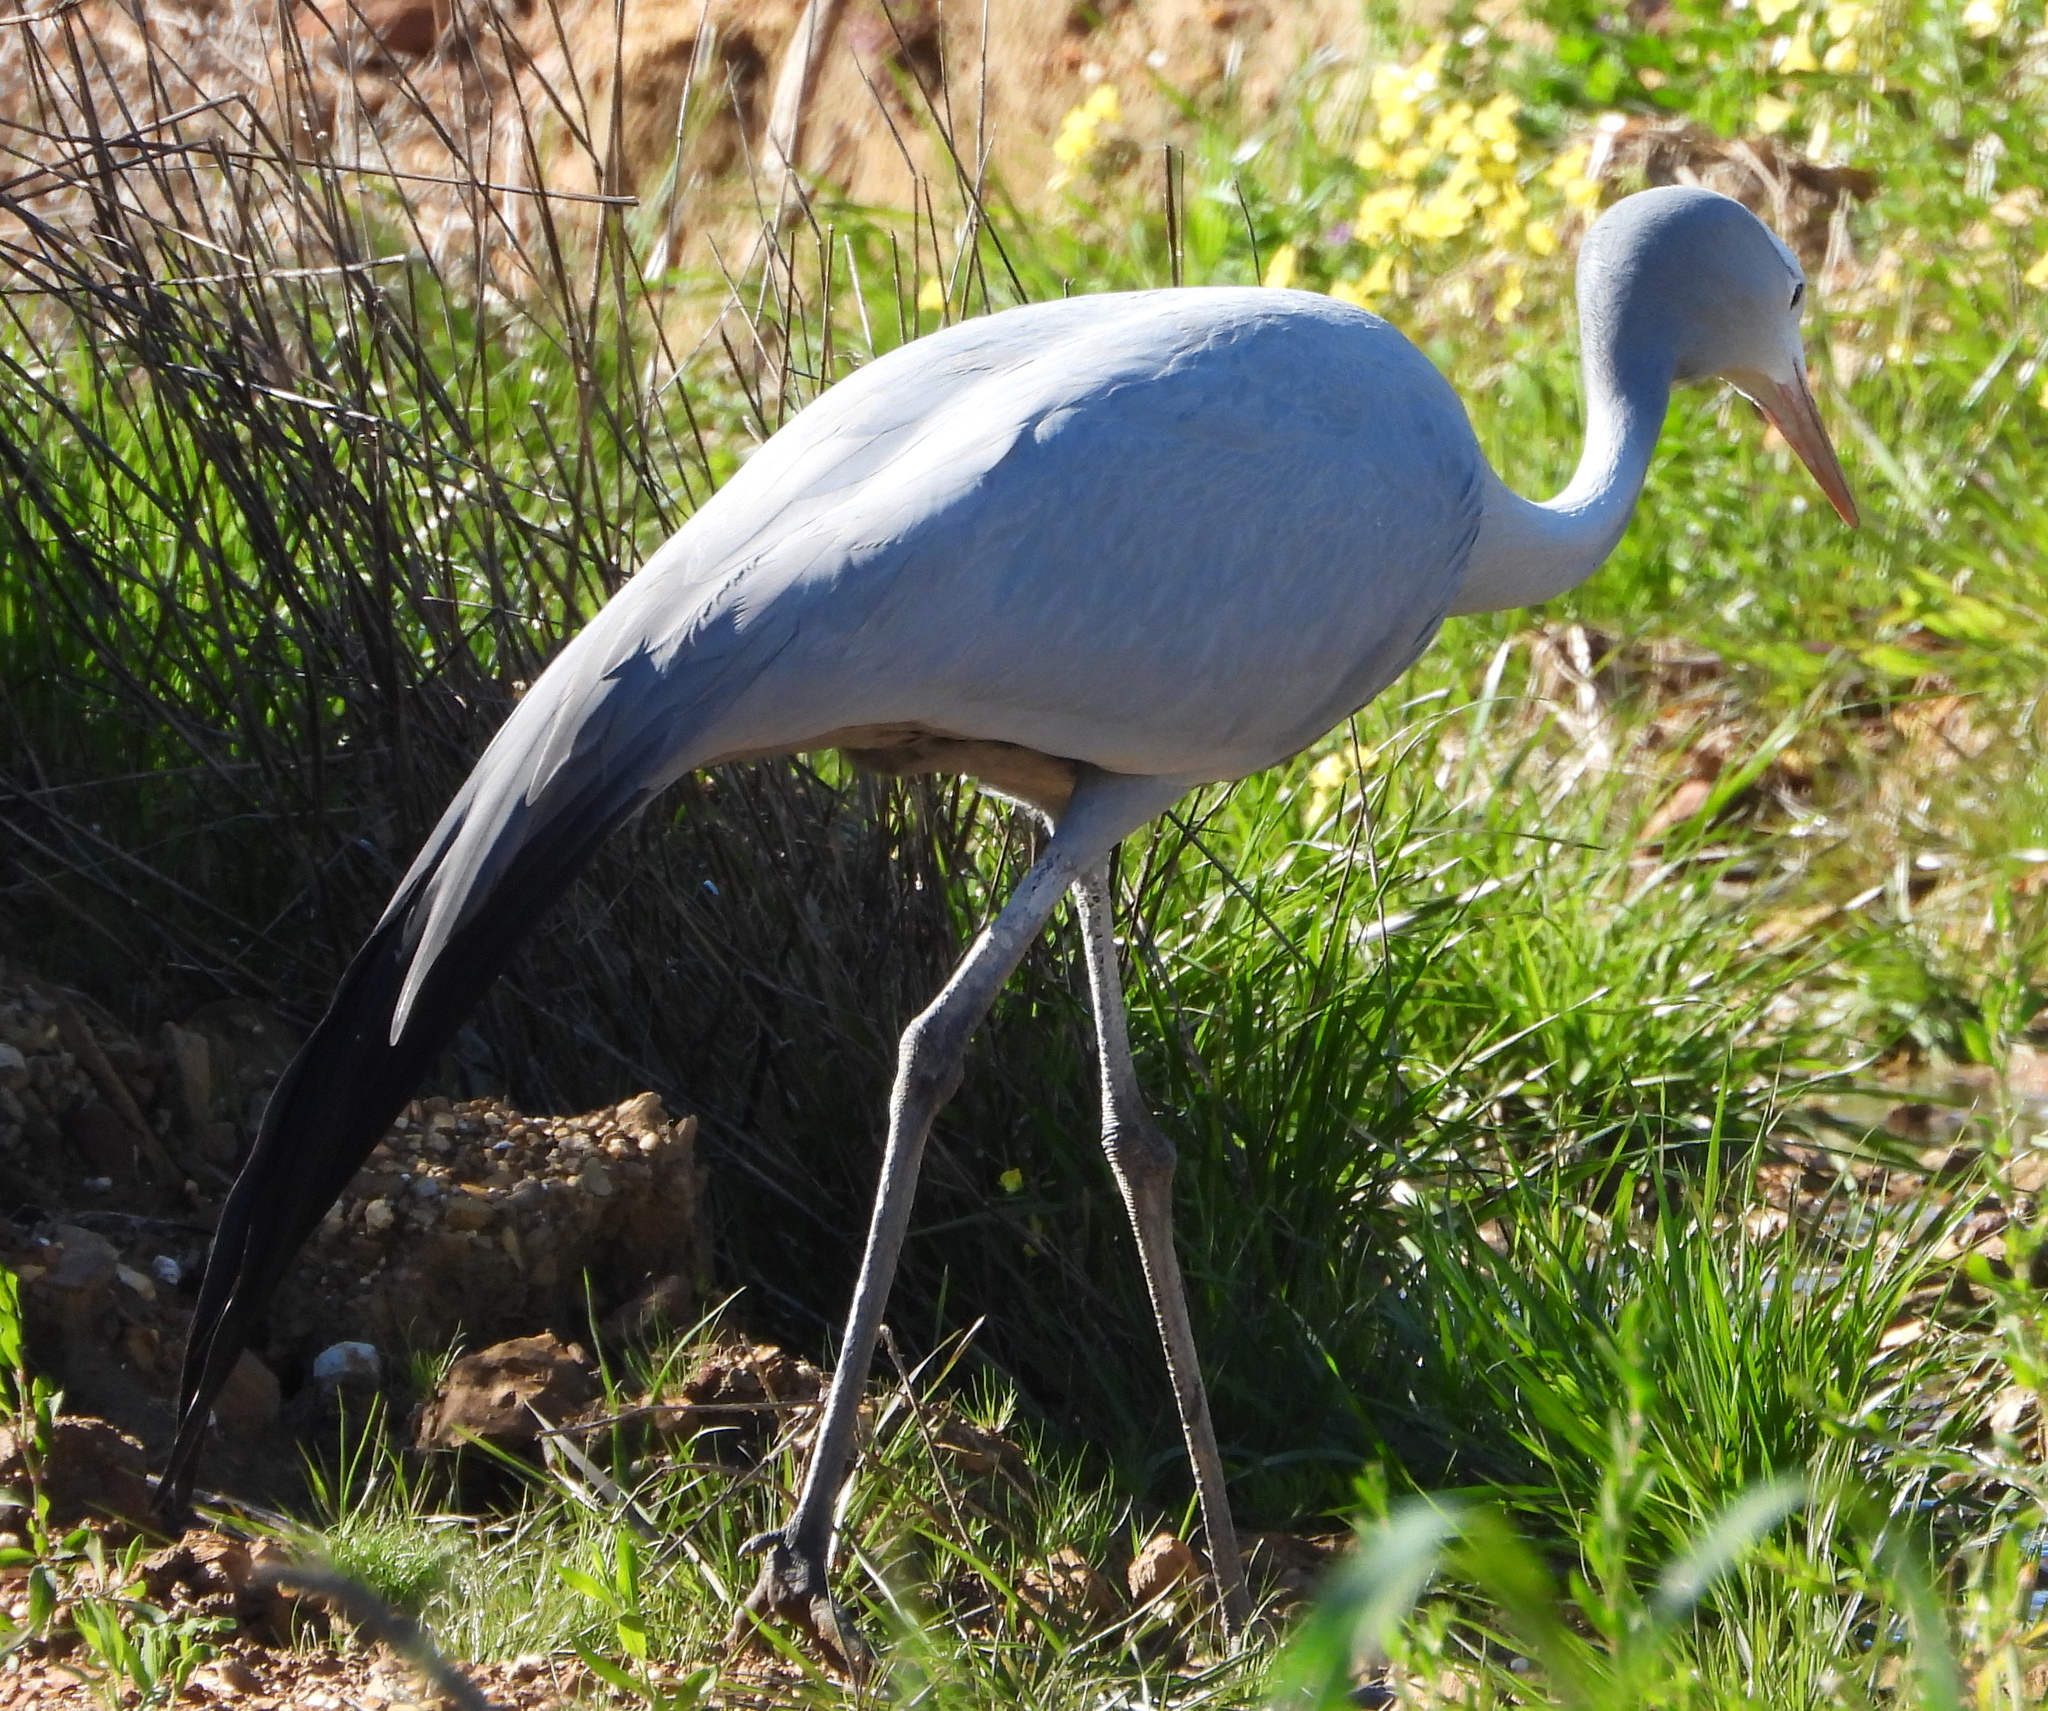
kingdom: Animalia
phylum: Chordata
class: Aves
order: Gruiformes
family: Gruidae
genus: Anthropoides
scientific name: Anthropoides paradiseus
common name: Blue crane
